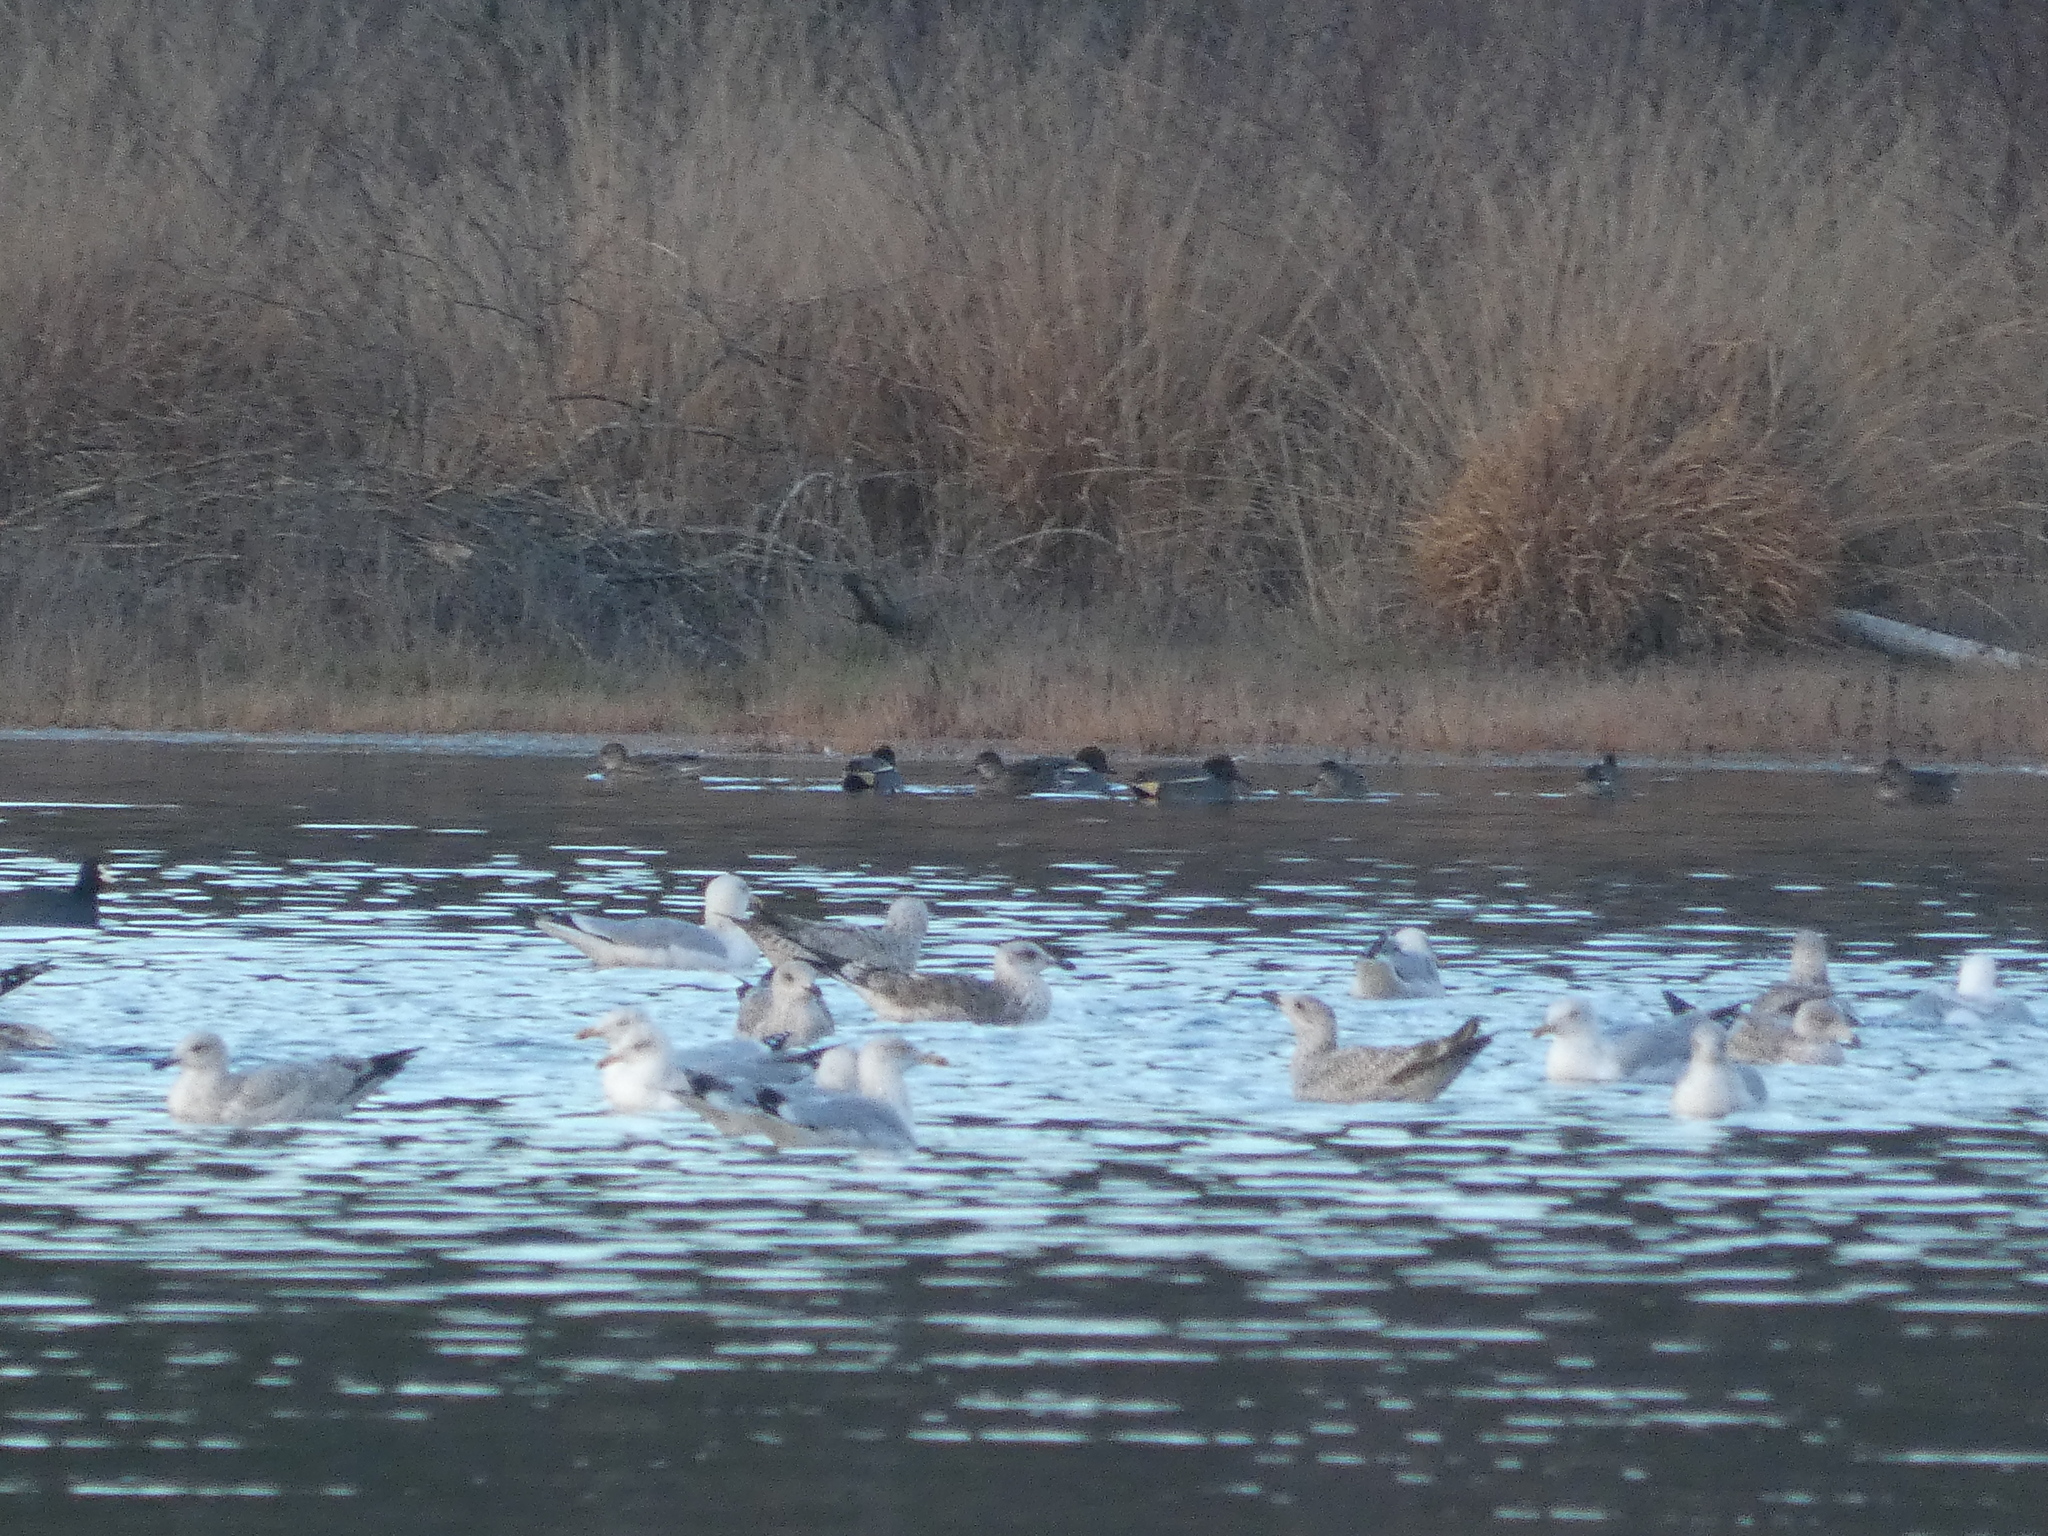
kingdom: Animalia
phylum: Chordata
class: Aves
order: Anseriformes
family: Anatidae
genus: Anas
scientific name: Anas crecca
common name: Eurasian teal
